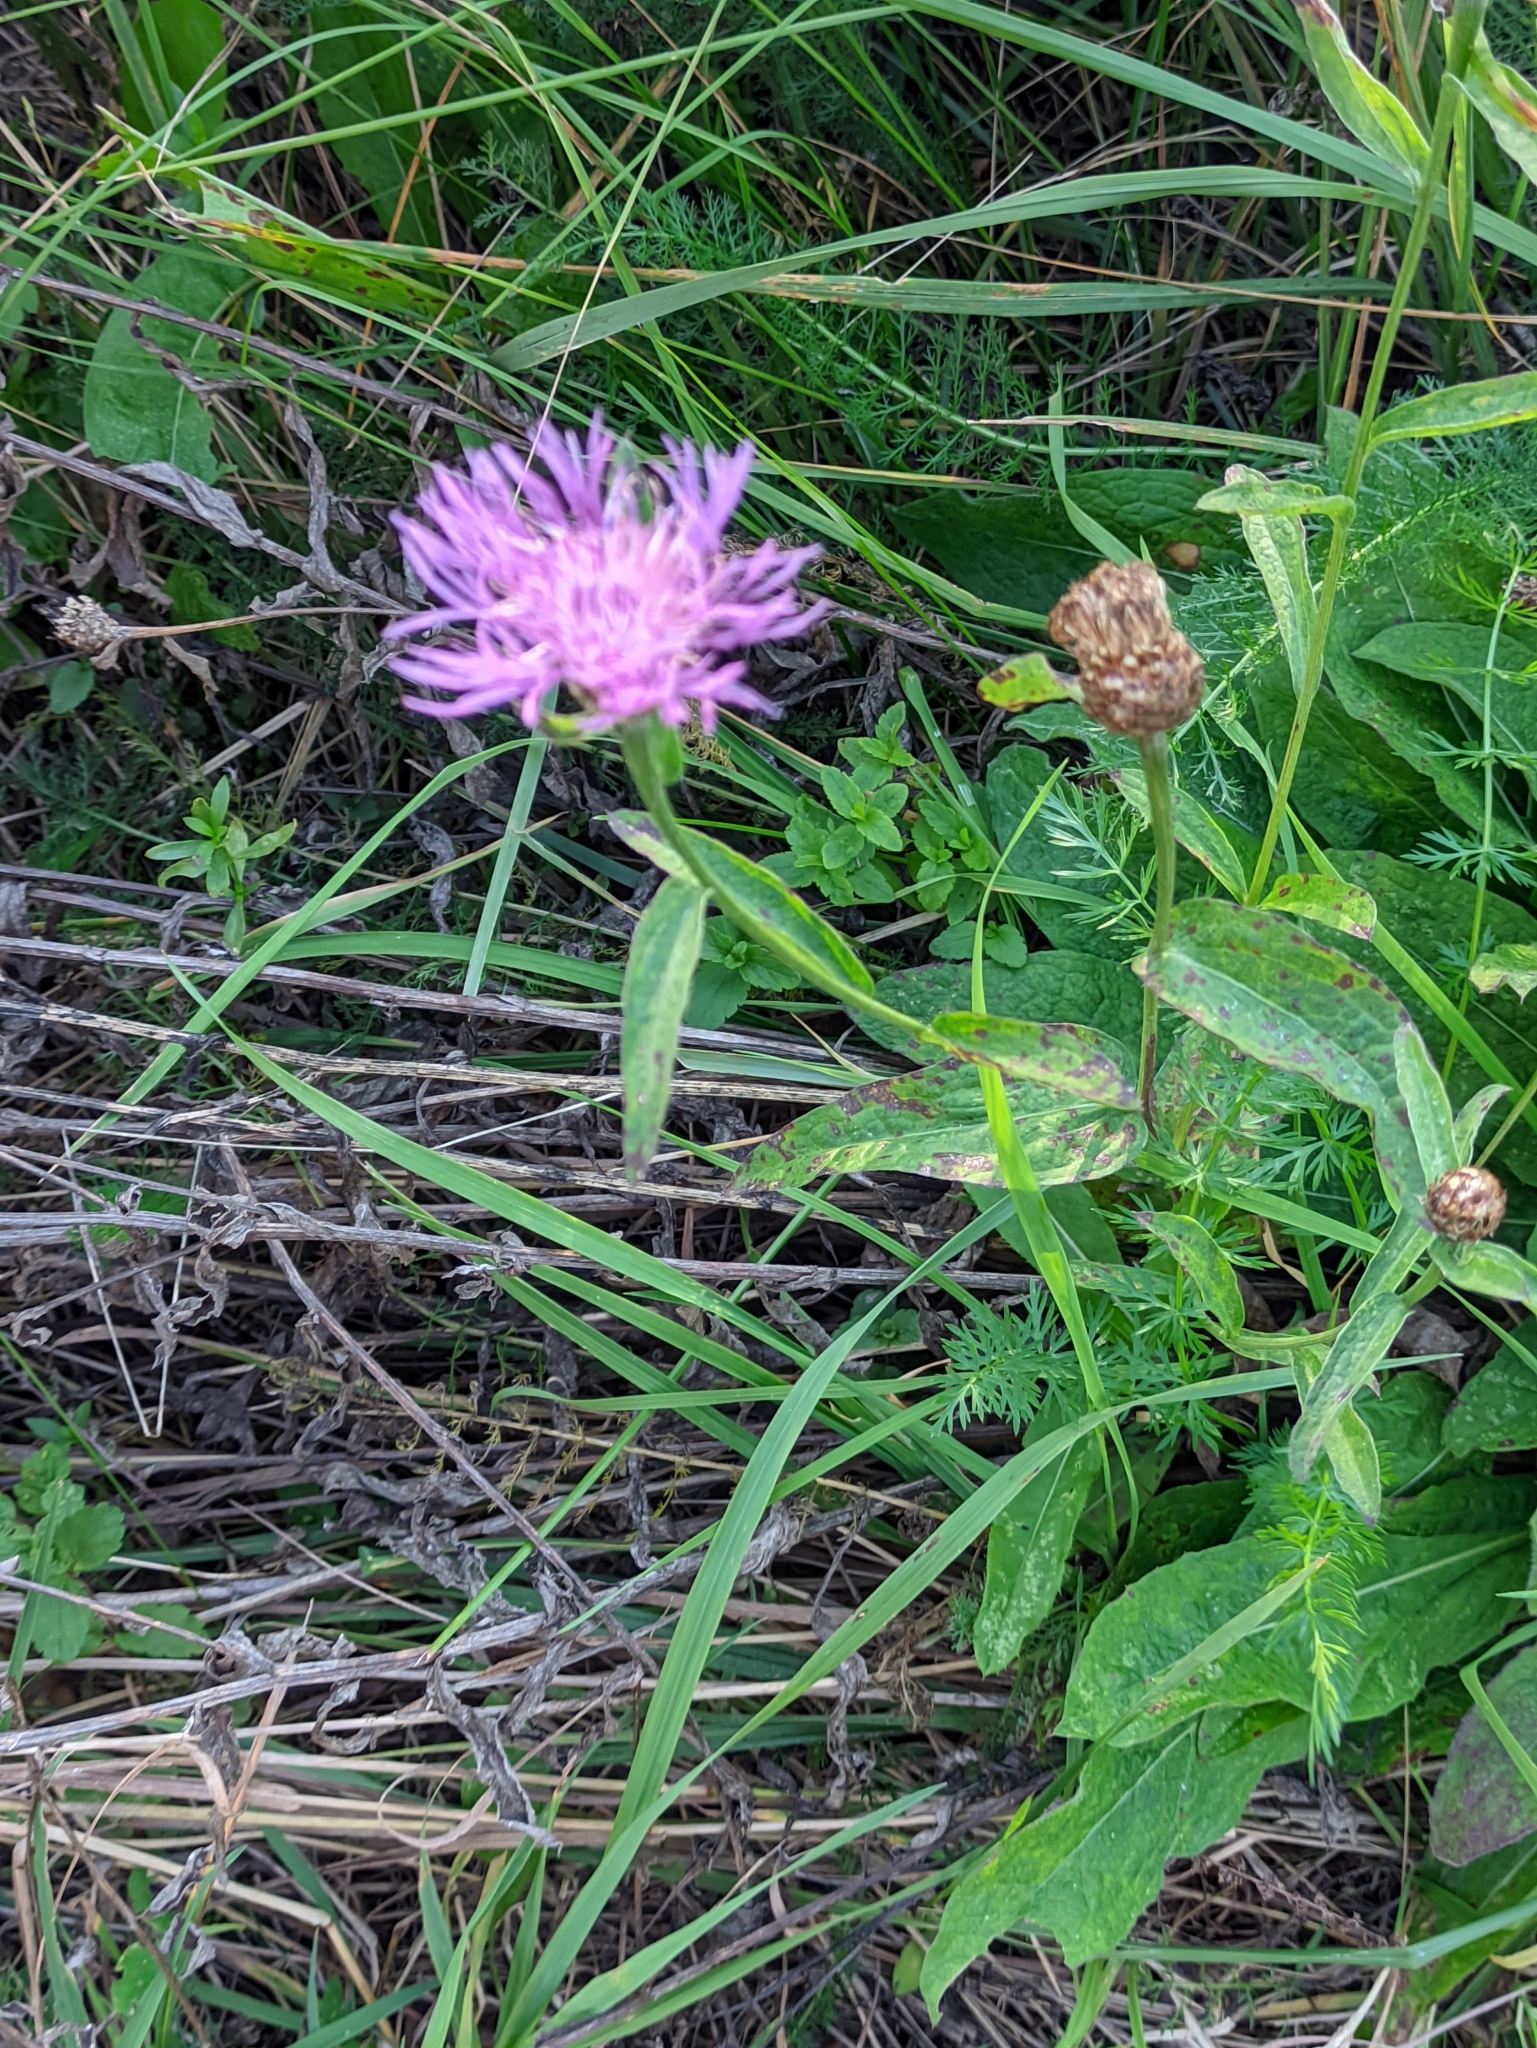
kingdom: Plantae
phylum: Tracheophyta
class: Magnoliopsida
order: Asterales
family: Asteraceae
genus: Centaurea
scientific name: Centaurea jacea
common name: Brown knapweed
